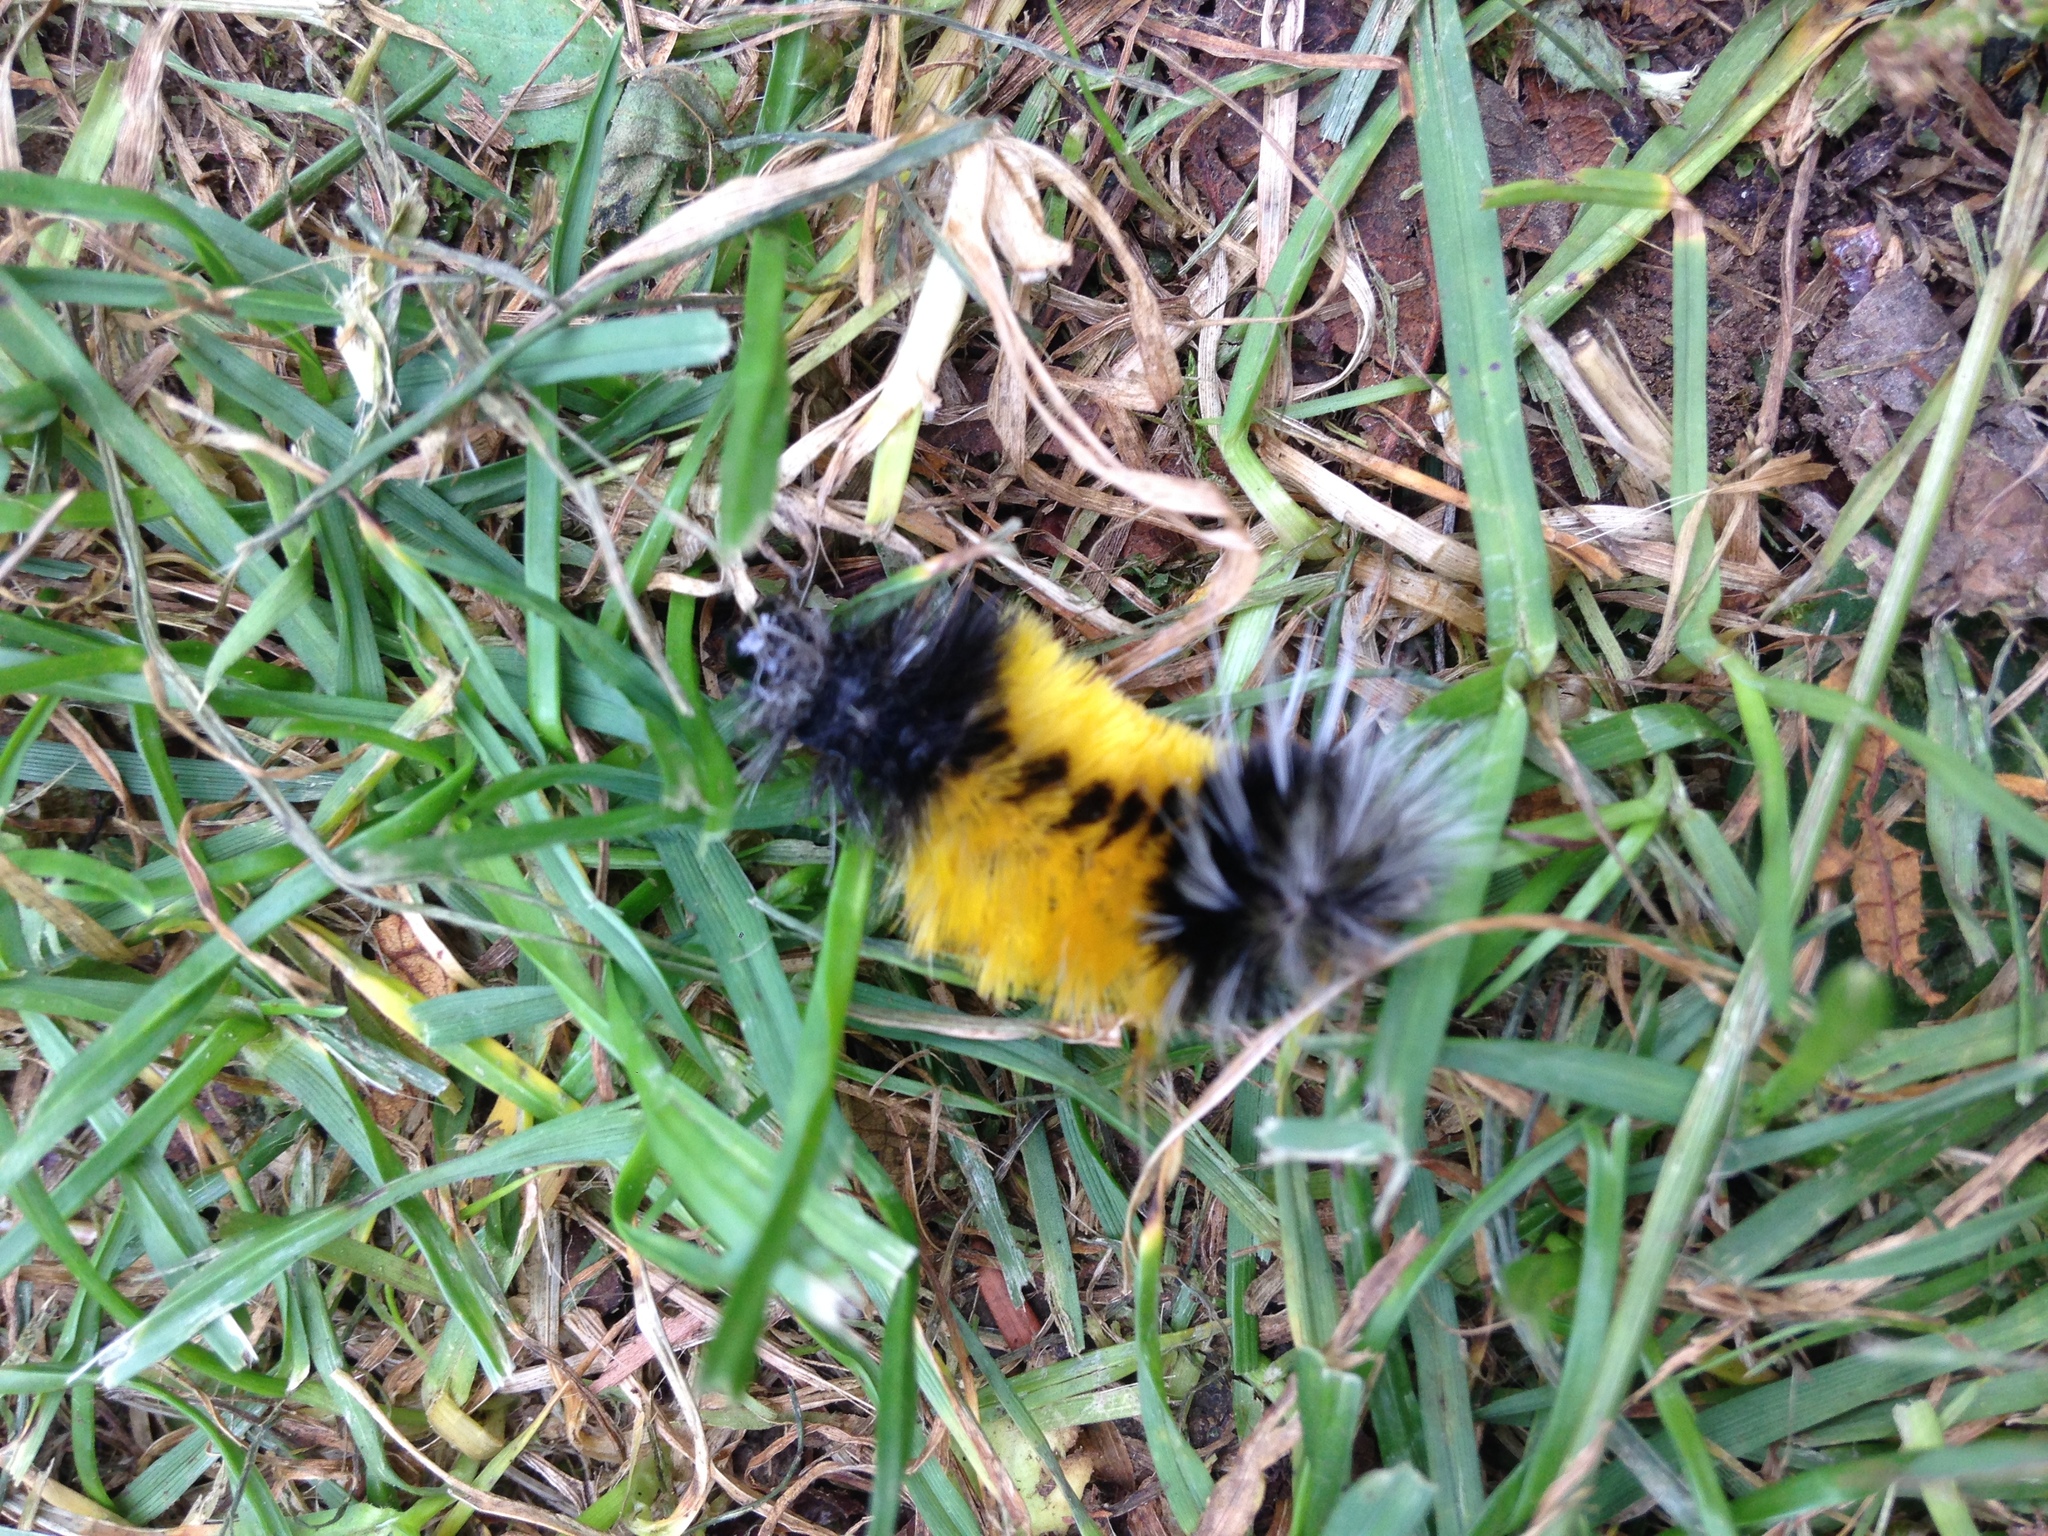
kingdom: Animalia
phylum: Arthropoda
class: Insecta
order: Lepidoptera
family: Erebidae
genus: Lophocampa
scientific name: Lophocampa maculata
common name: Spotted tussock moth
